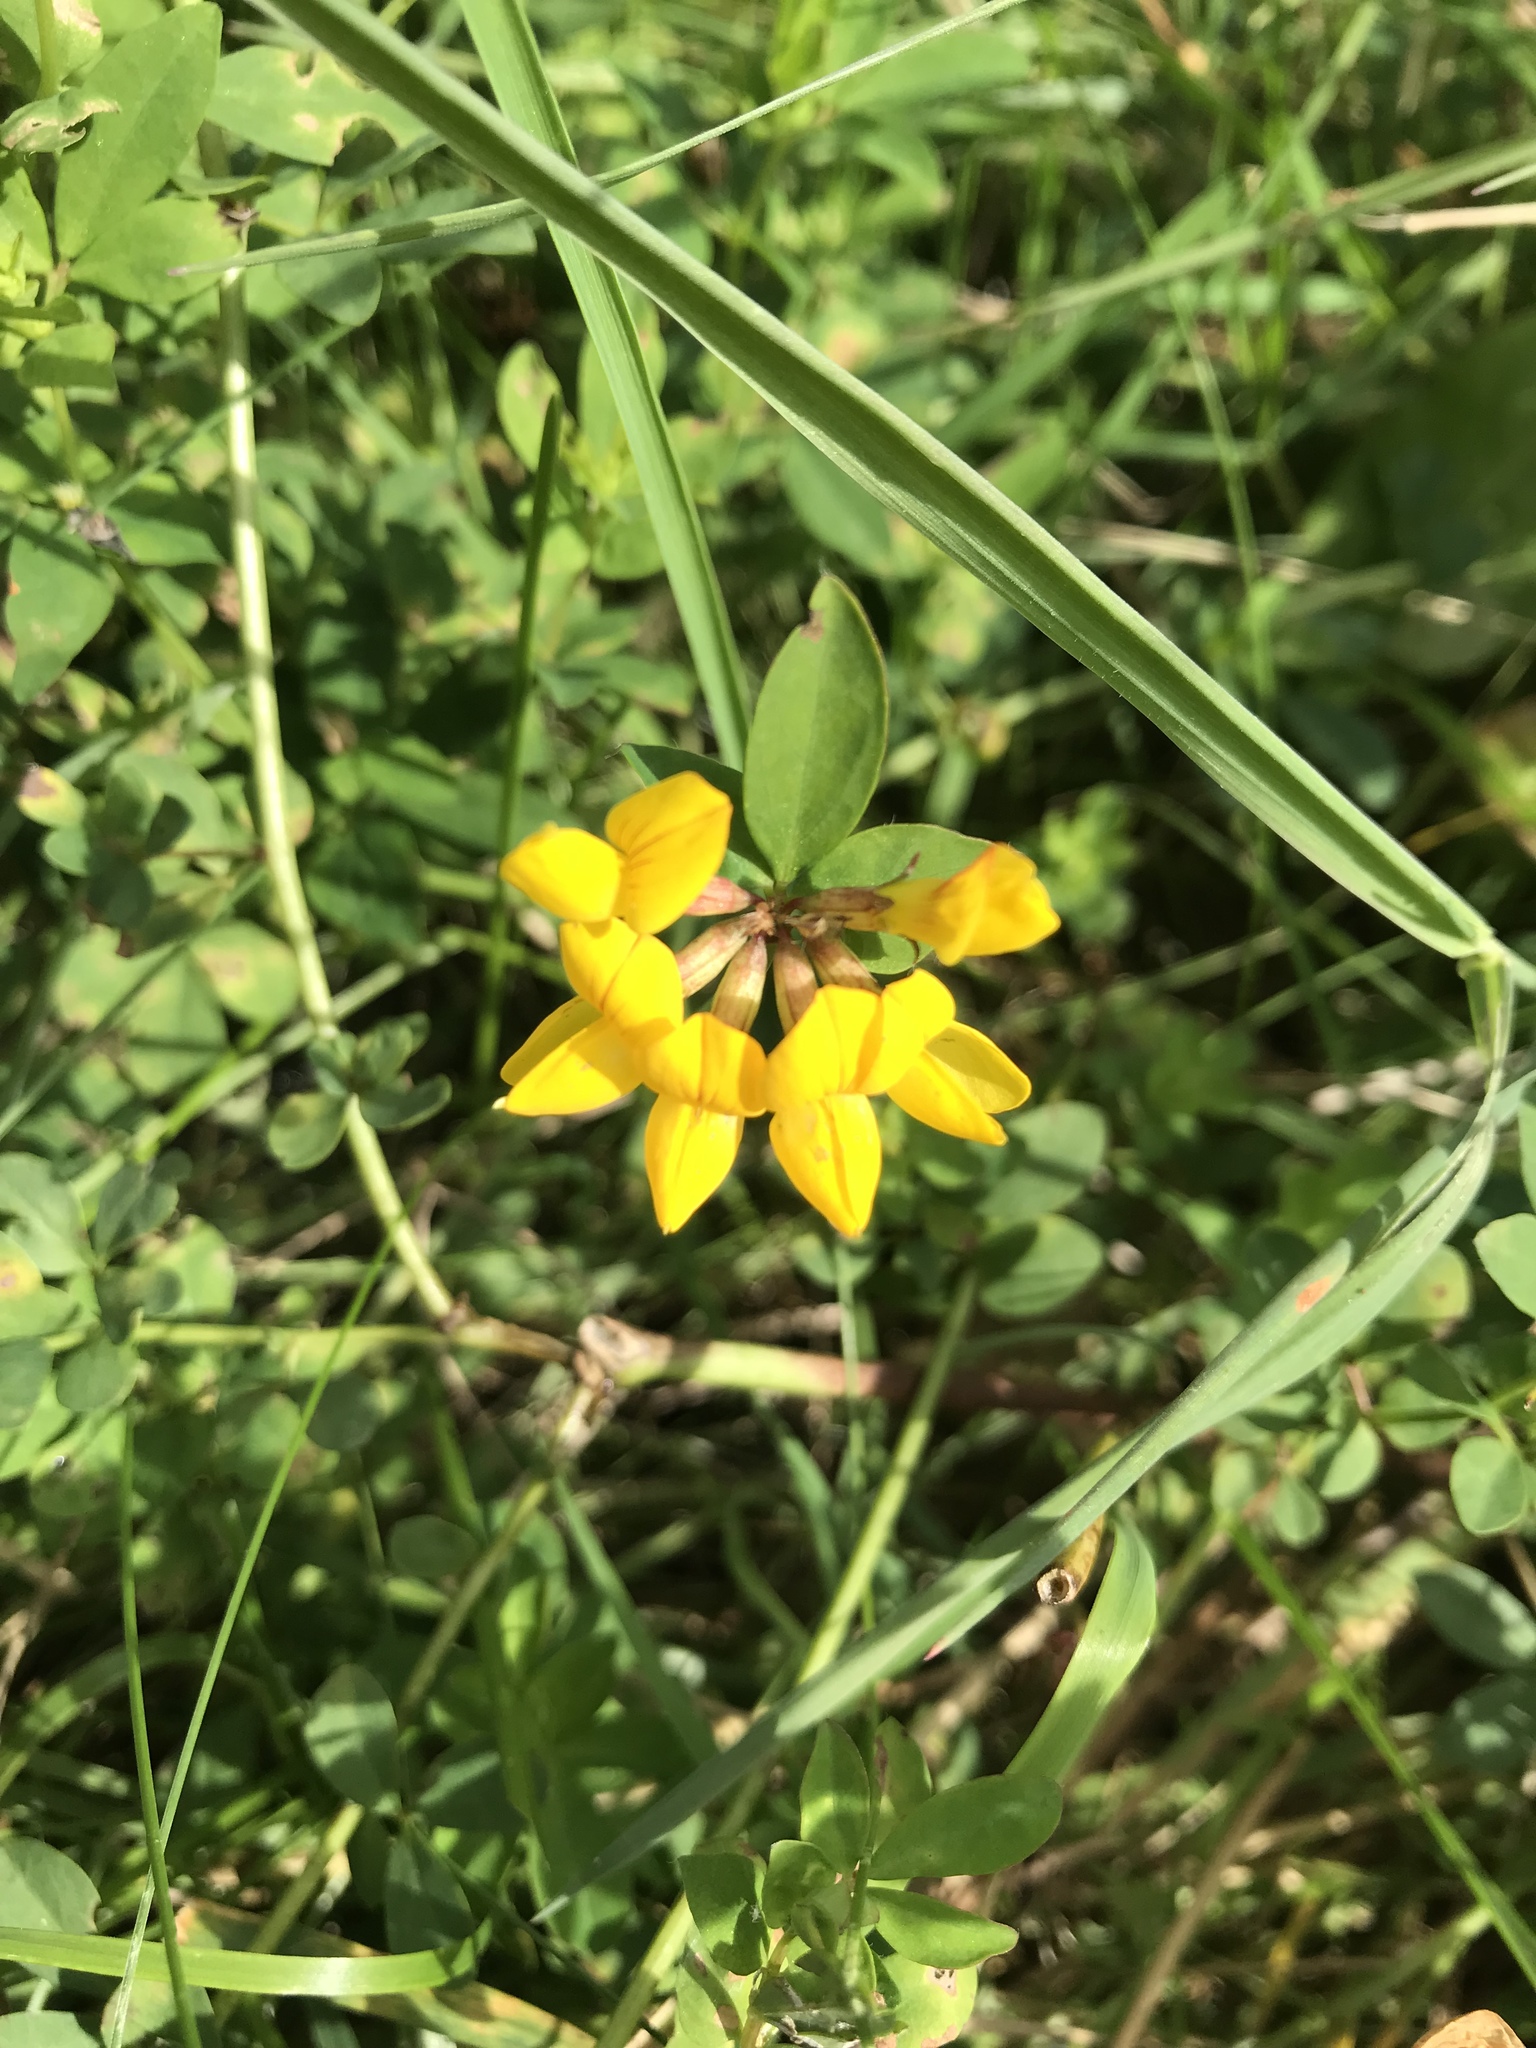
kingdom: Plantae
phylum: Tracheophyta
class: Magnoliopsida
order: Fabales
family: Fabaceae
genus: Lotus
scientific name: Lotus corniculatus
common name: Common bird's-foot-trefoil
